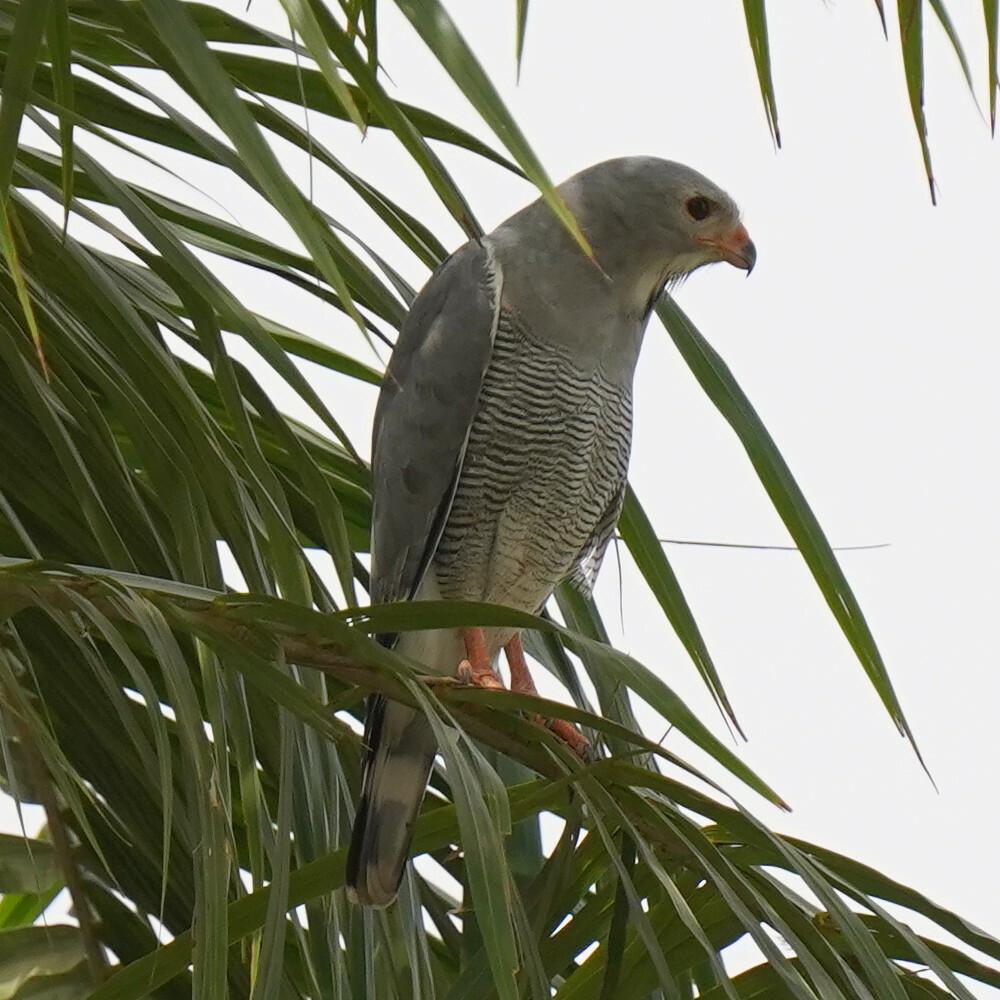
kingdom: Animalia
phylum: Chordata
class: Aves
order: Accipitriformes
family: Accipitridae
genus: Kaupifalco
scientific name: Kaupifalco monogrammicus
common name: Lizard buzzard
